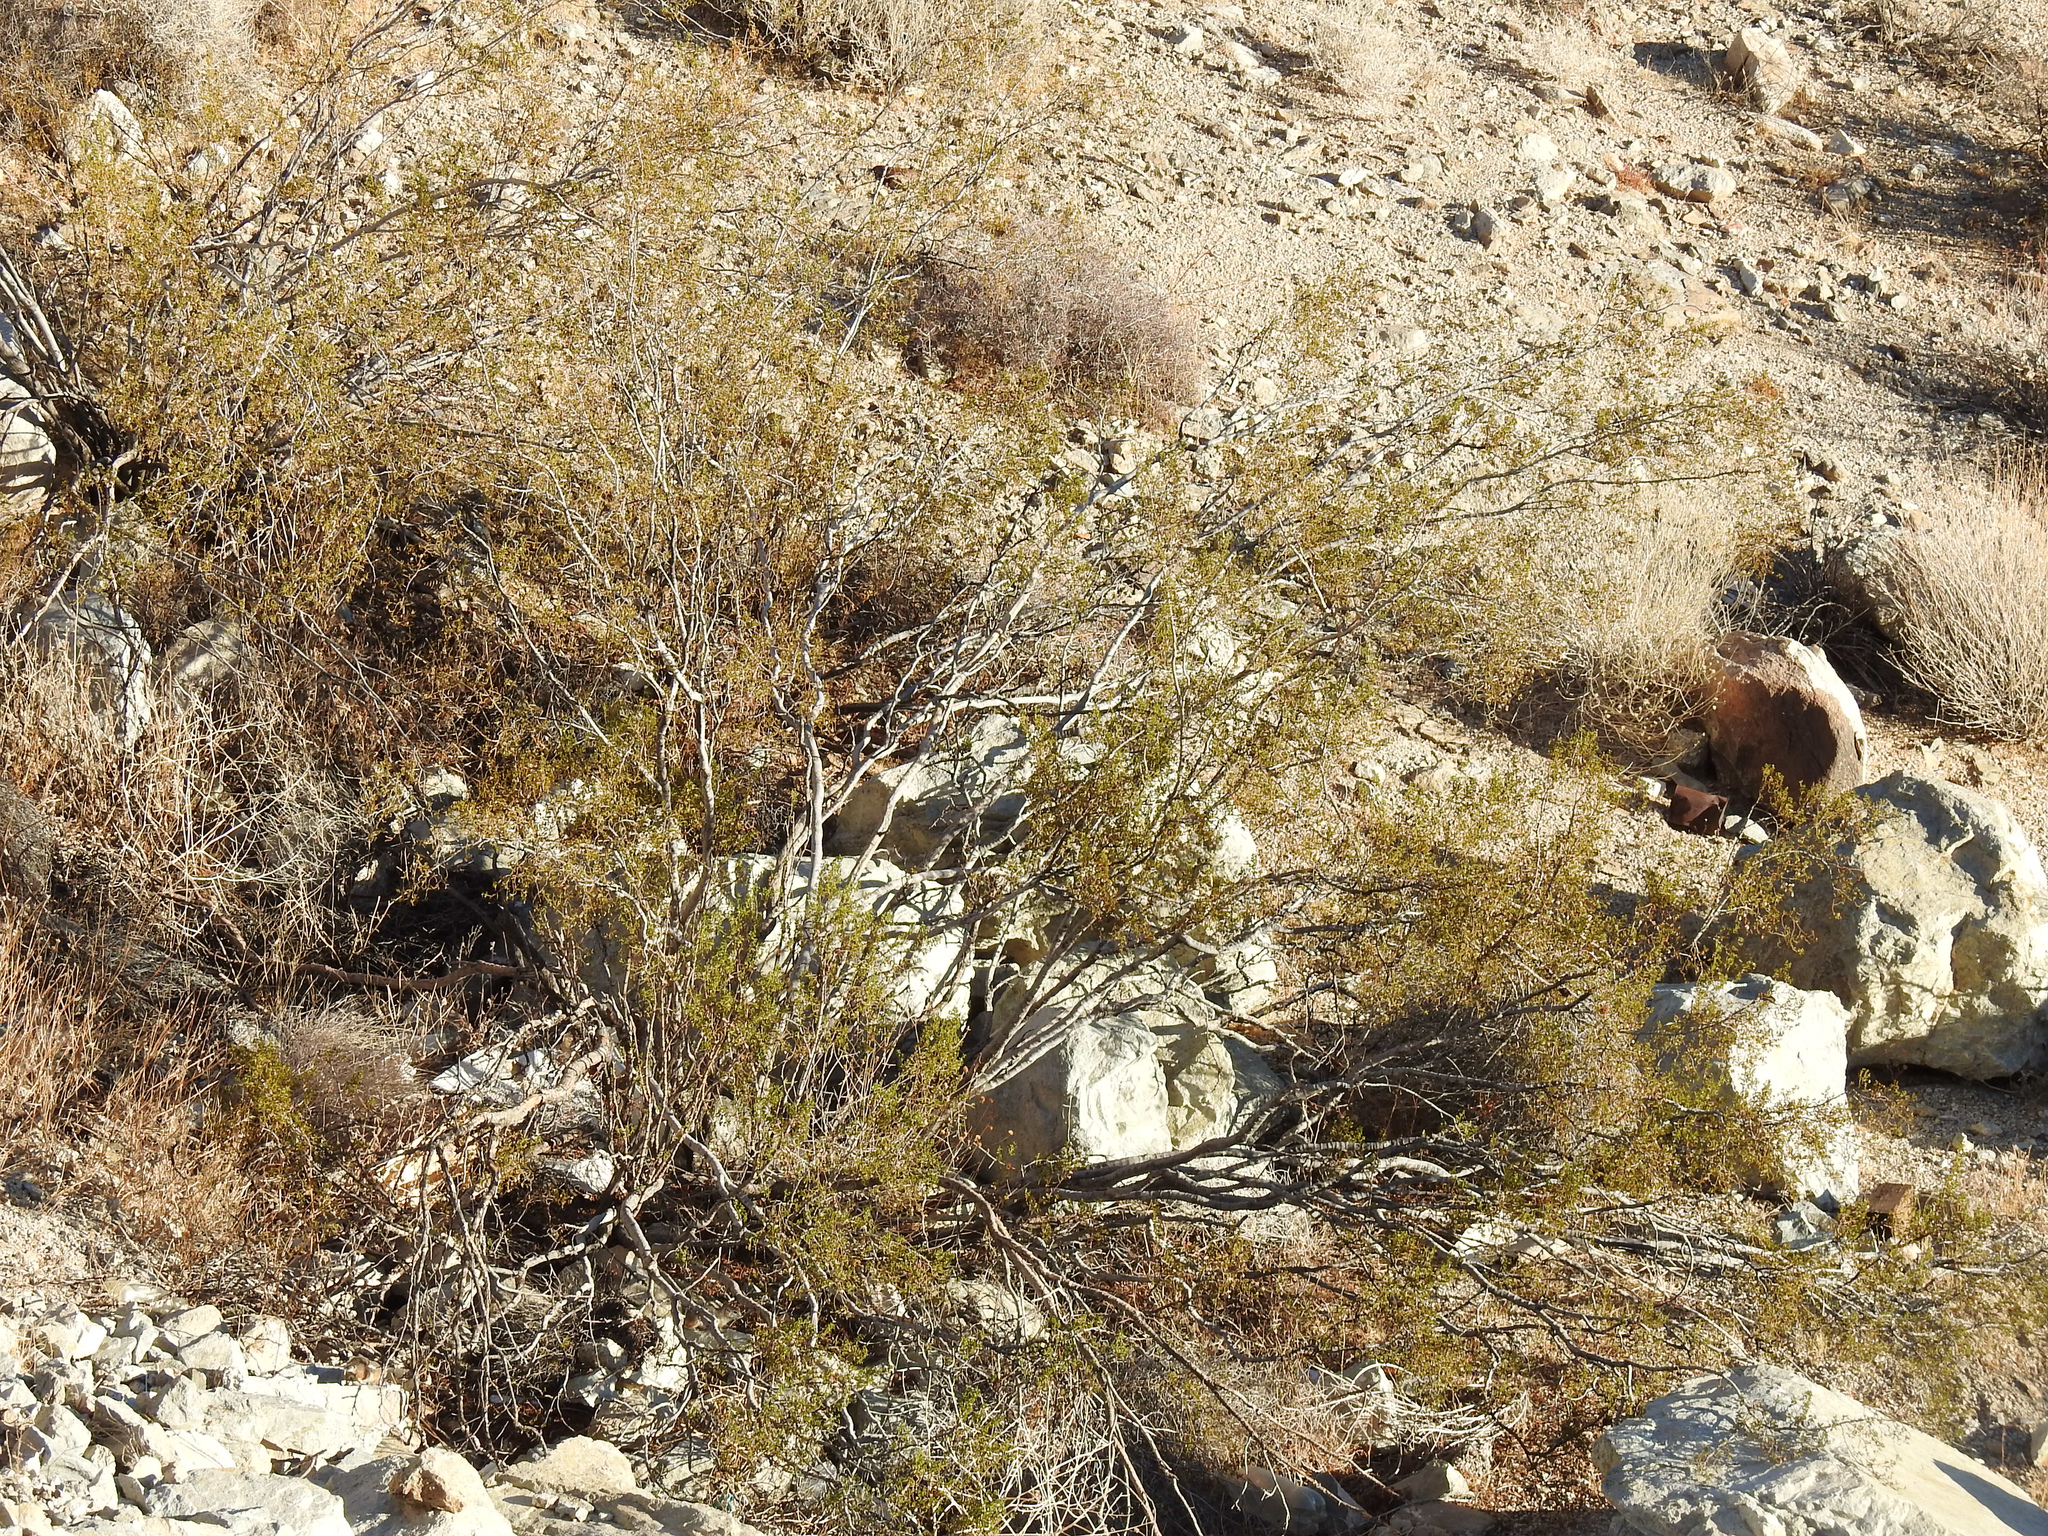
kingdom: Plantae
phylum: Tracheophyta
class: Magnoliopsida
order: Zygophyllales
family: Zygophyllaceae
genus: Larrea
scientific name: Larrea tridentata
